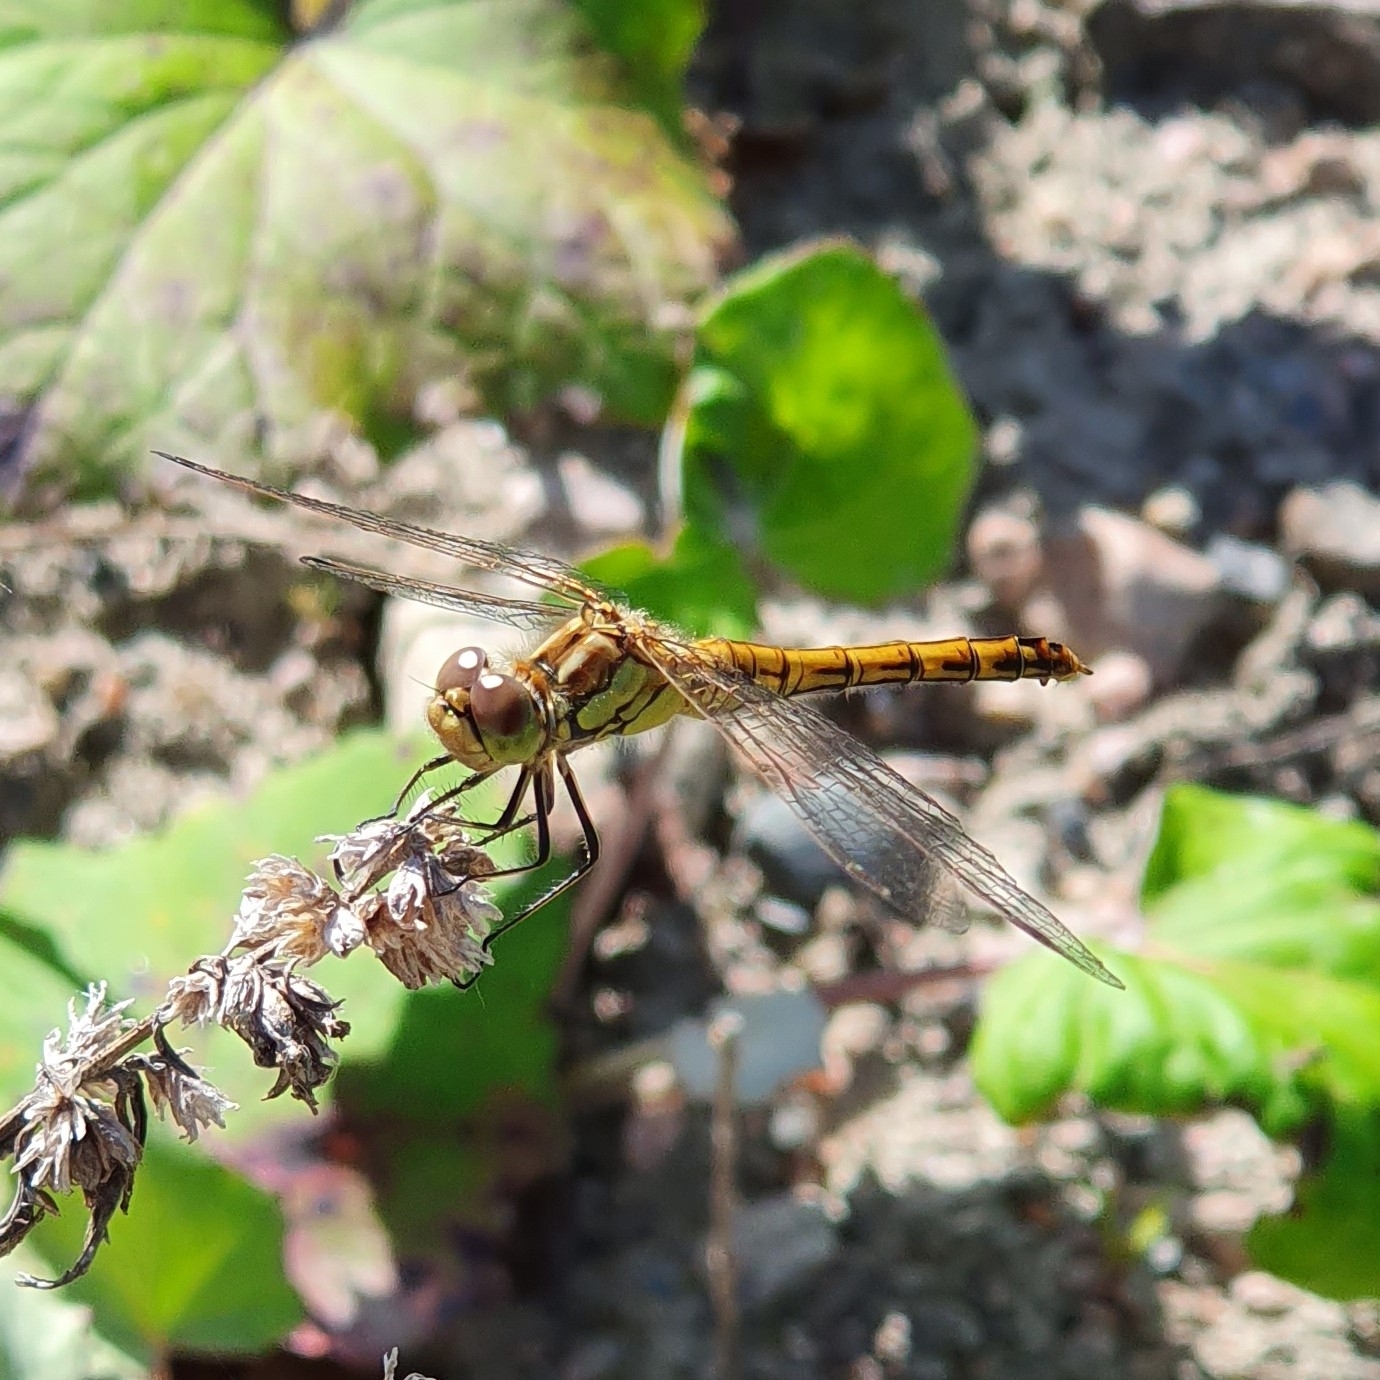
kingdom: Animalia
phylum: Arthropoda
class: Insecta
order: Odonata
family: Libellulidae
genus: Sympetrum
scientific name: Sympetrum vulgatum
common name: Vagrant darter
